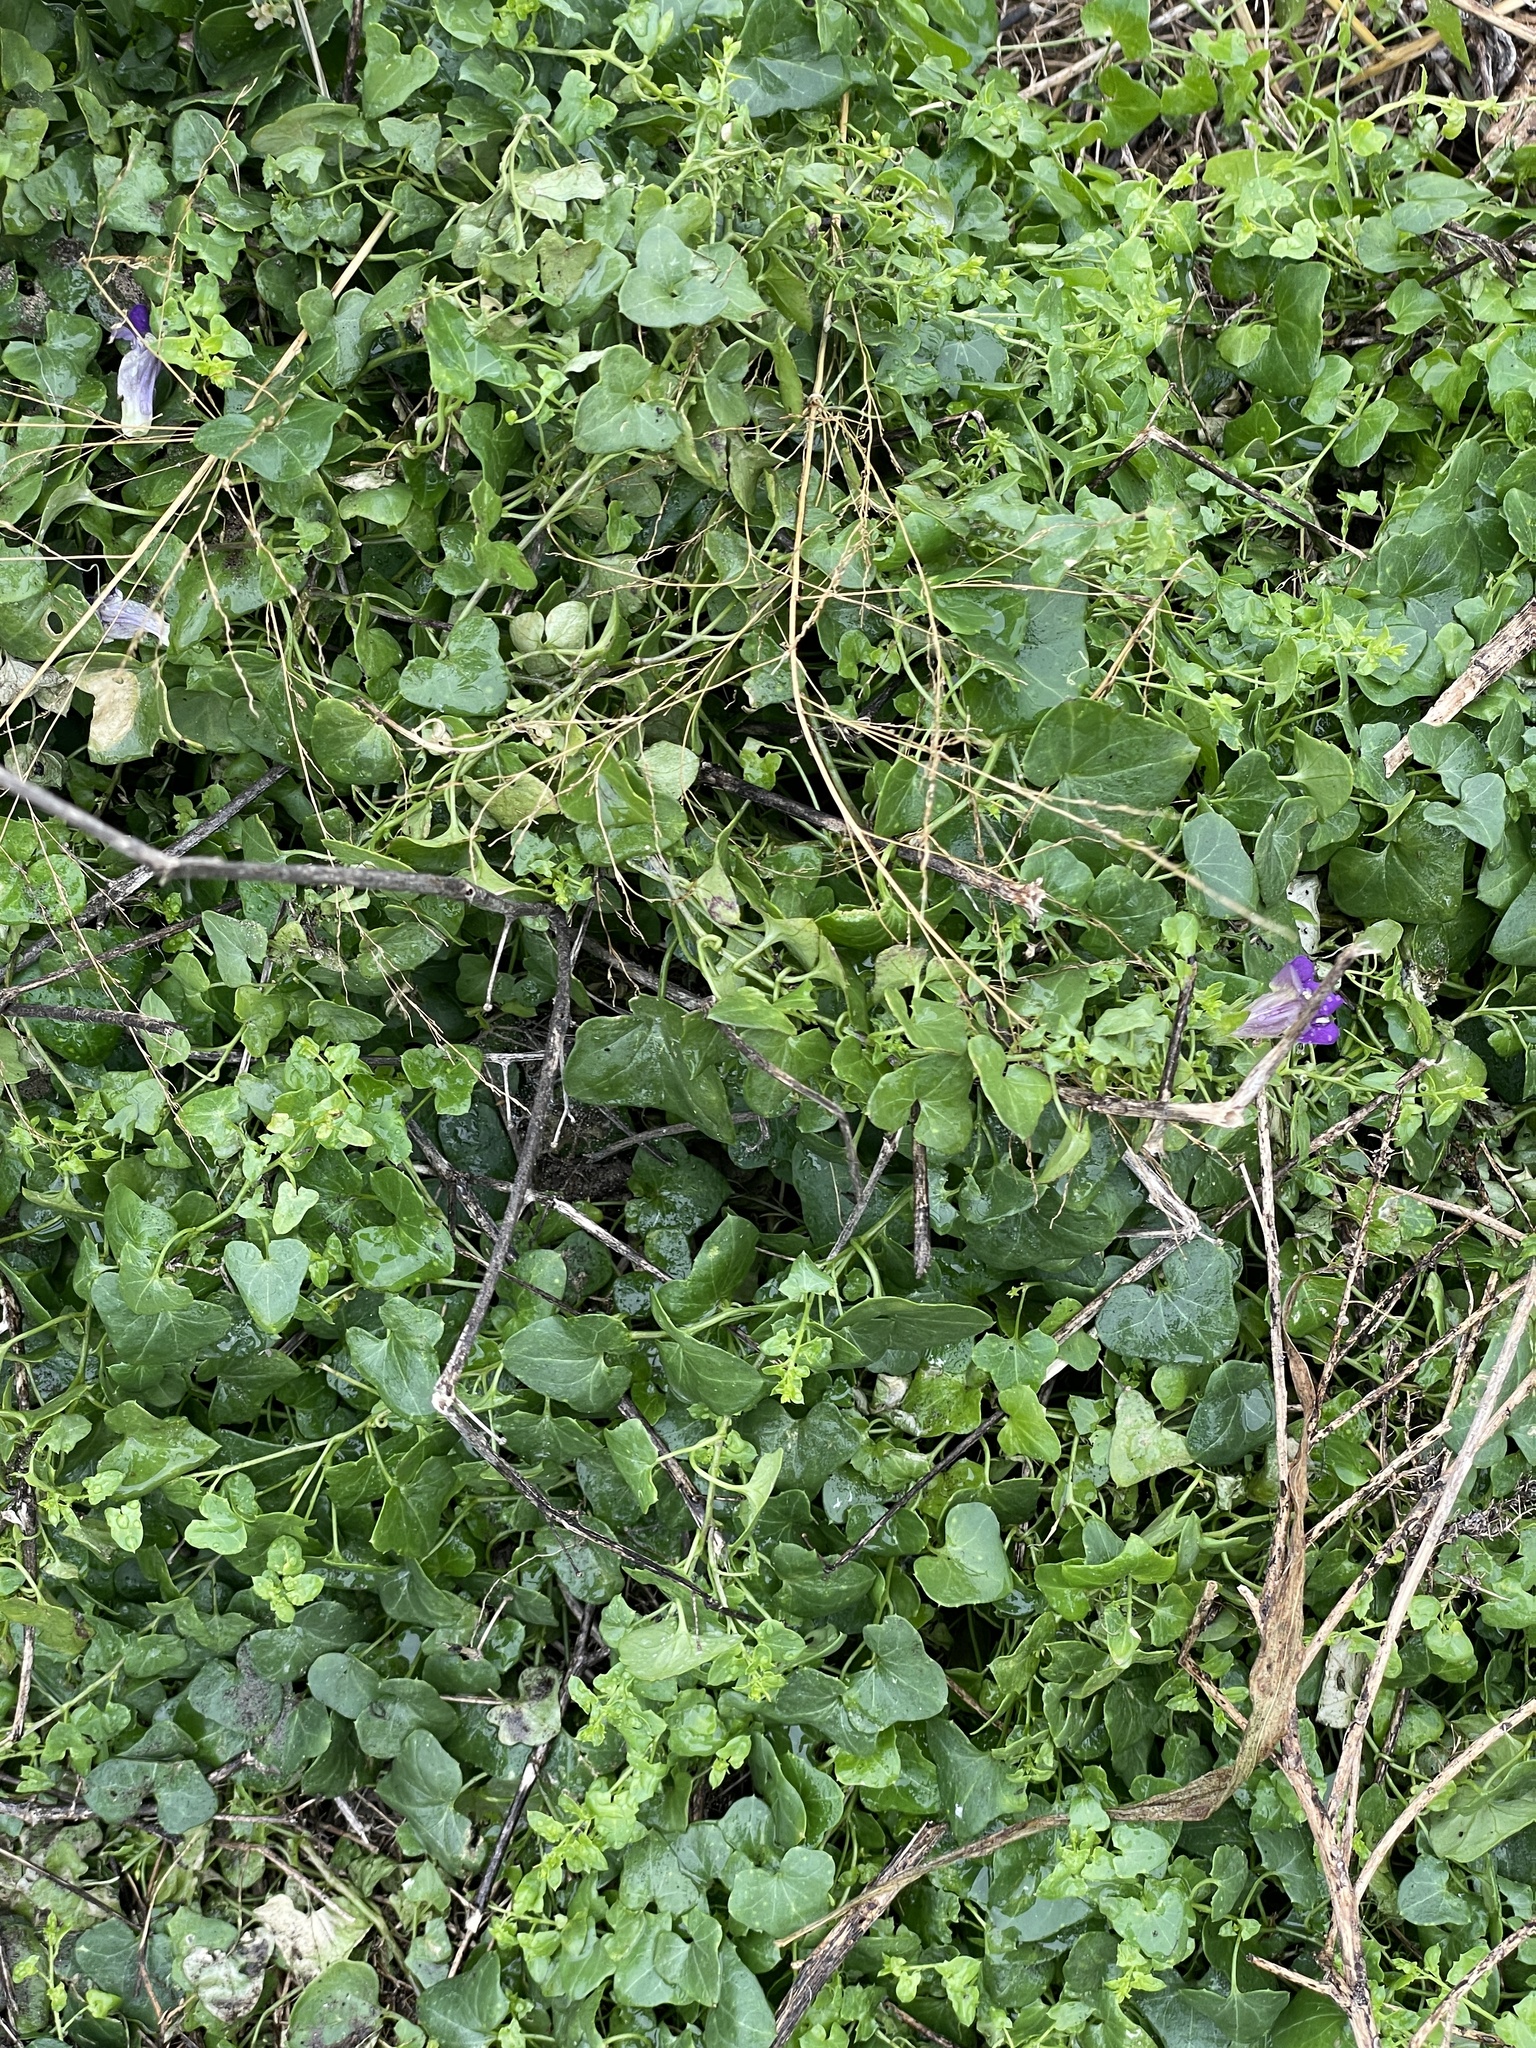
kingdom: Plantae
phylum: Tracheophyta
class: Magnoliopsida
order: Lamiales
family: Plantaginaceae
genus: Maurandella
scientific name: Maurandella antirrhiniflora
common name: Violet twining-snapdragon
